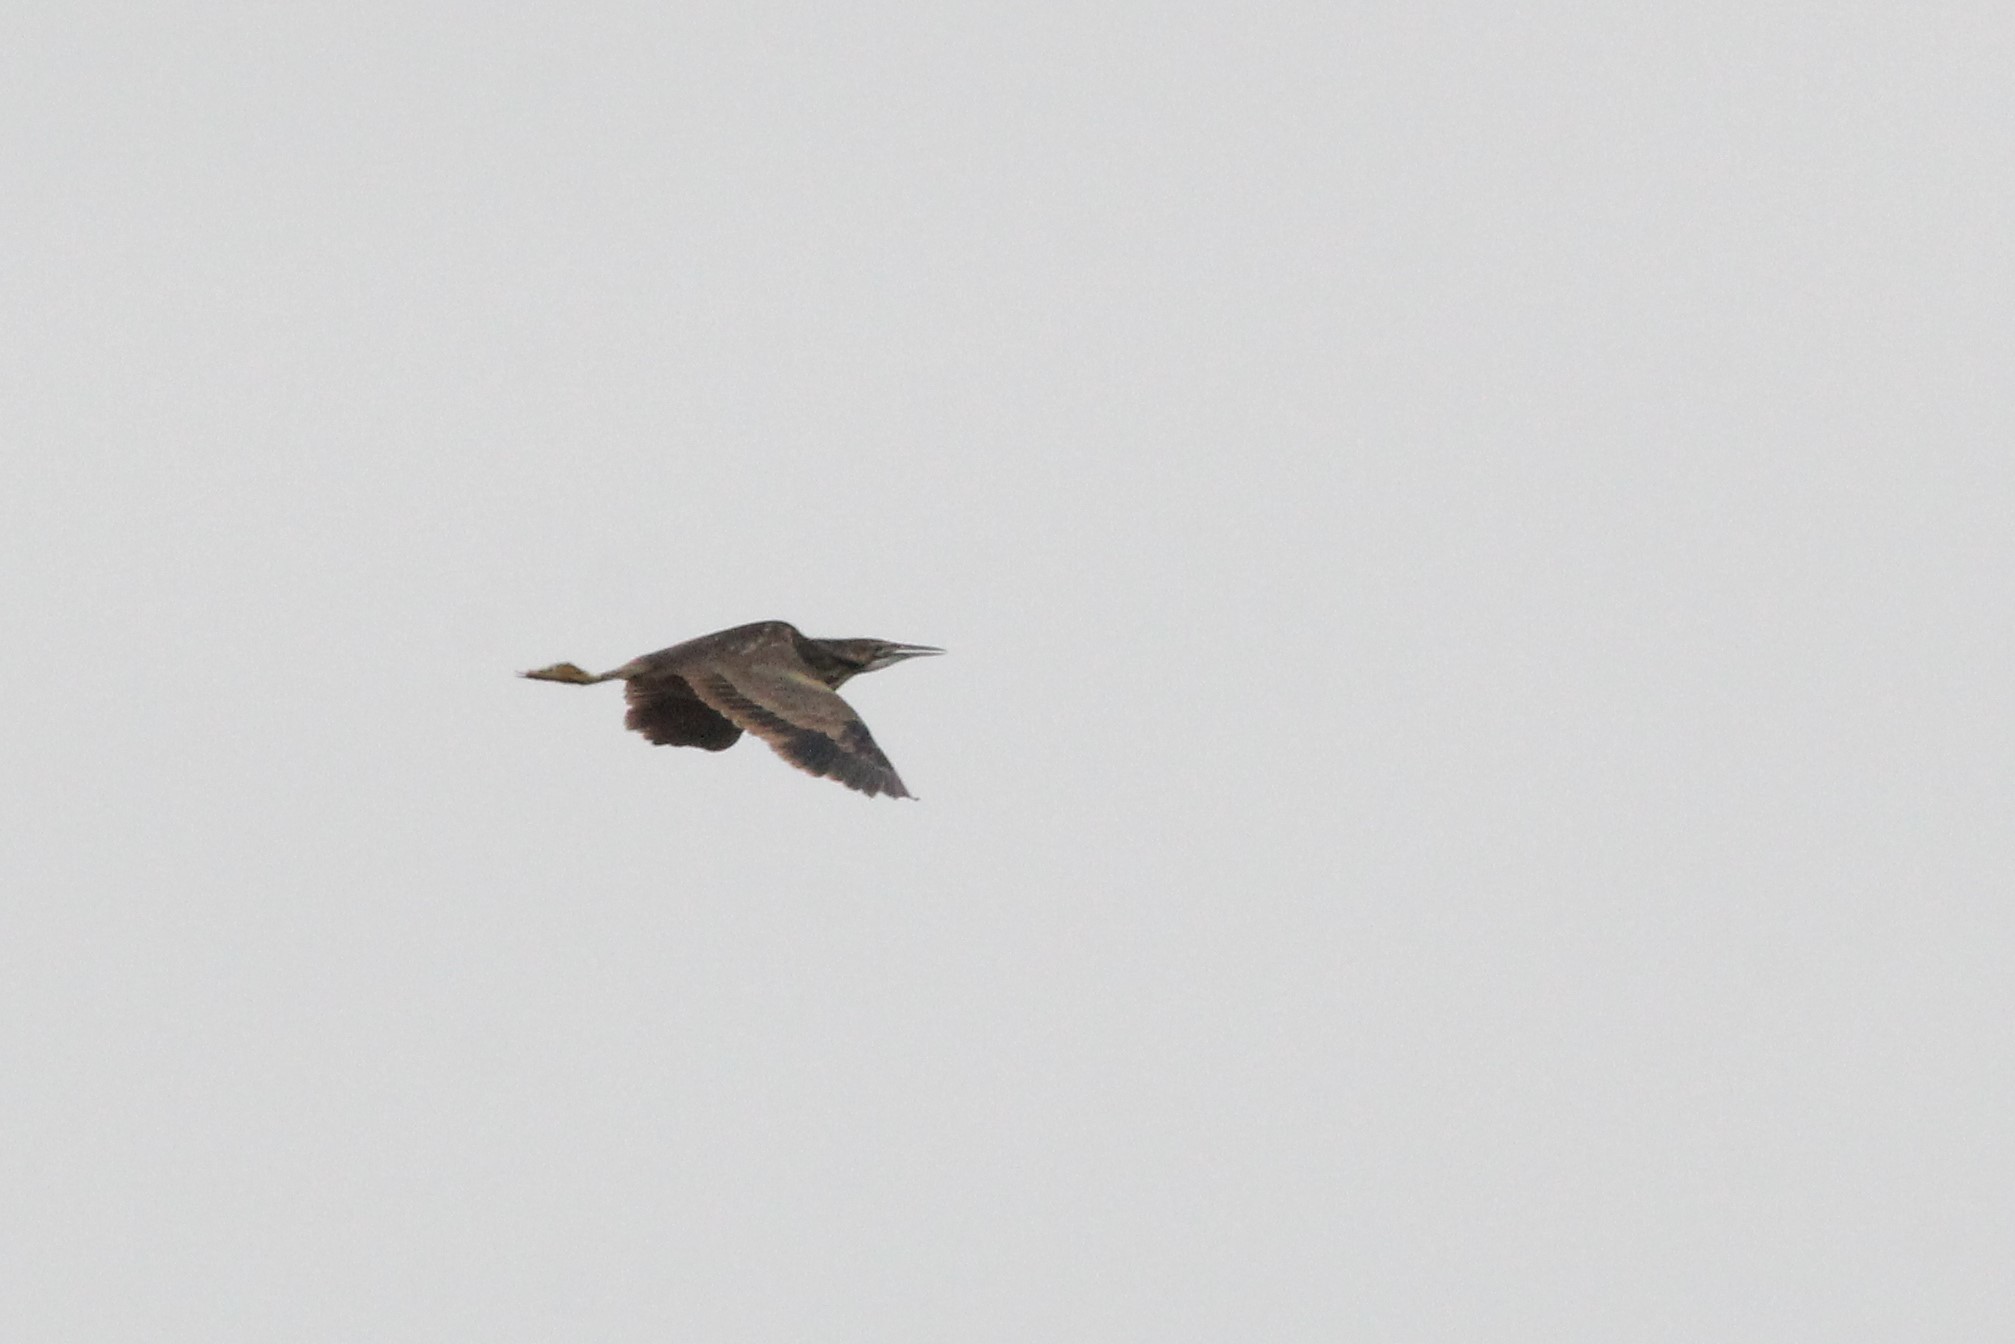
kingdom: Animalia
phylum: Chordata
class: Aves
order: Pelecaniformes
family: Ardeidae
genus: Botaurus
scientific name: Botaurus lentiginosus
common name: American bittern
